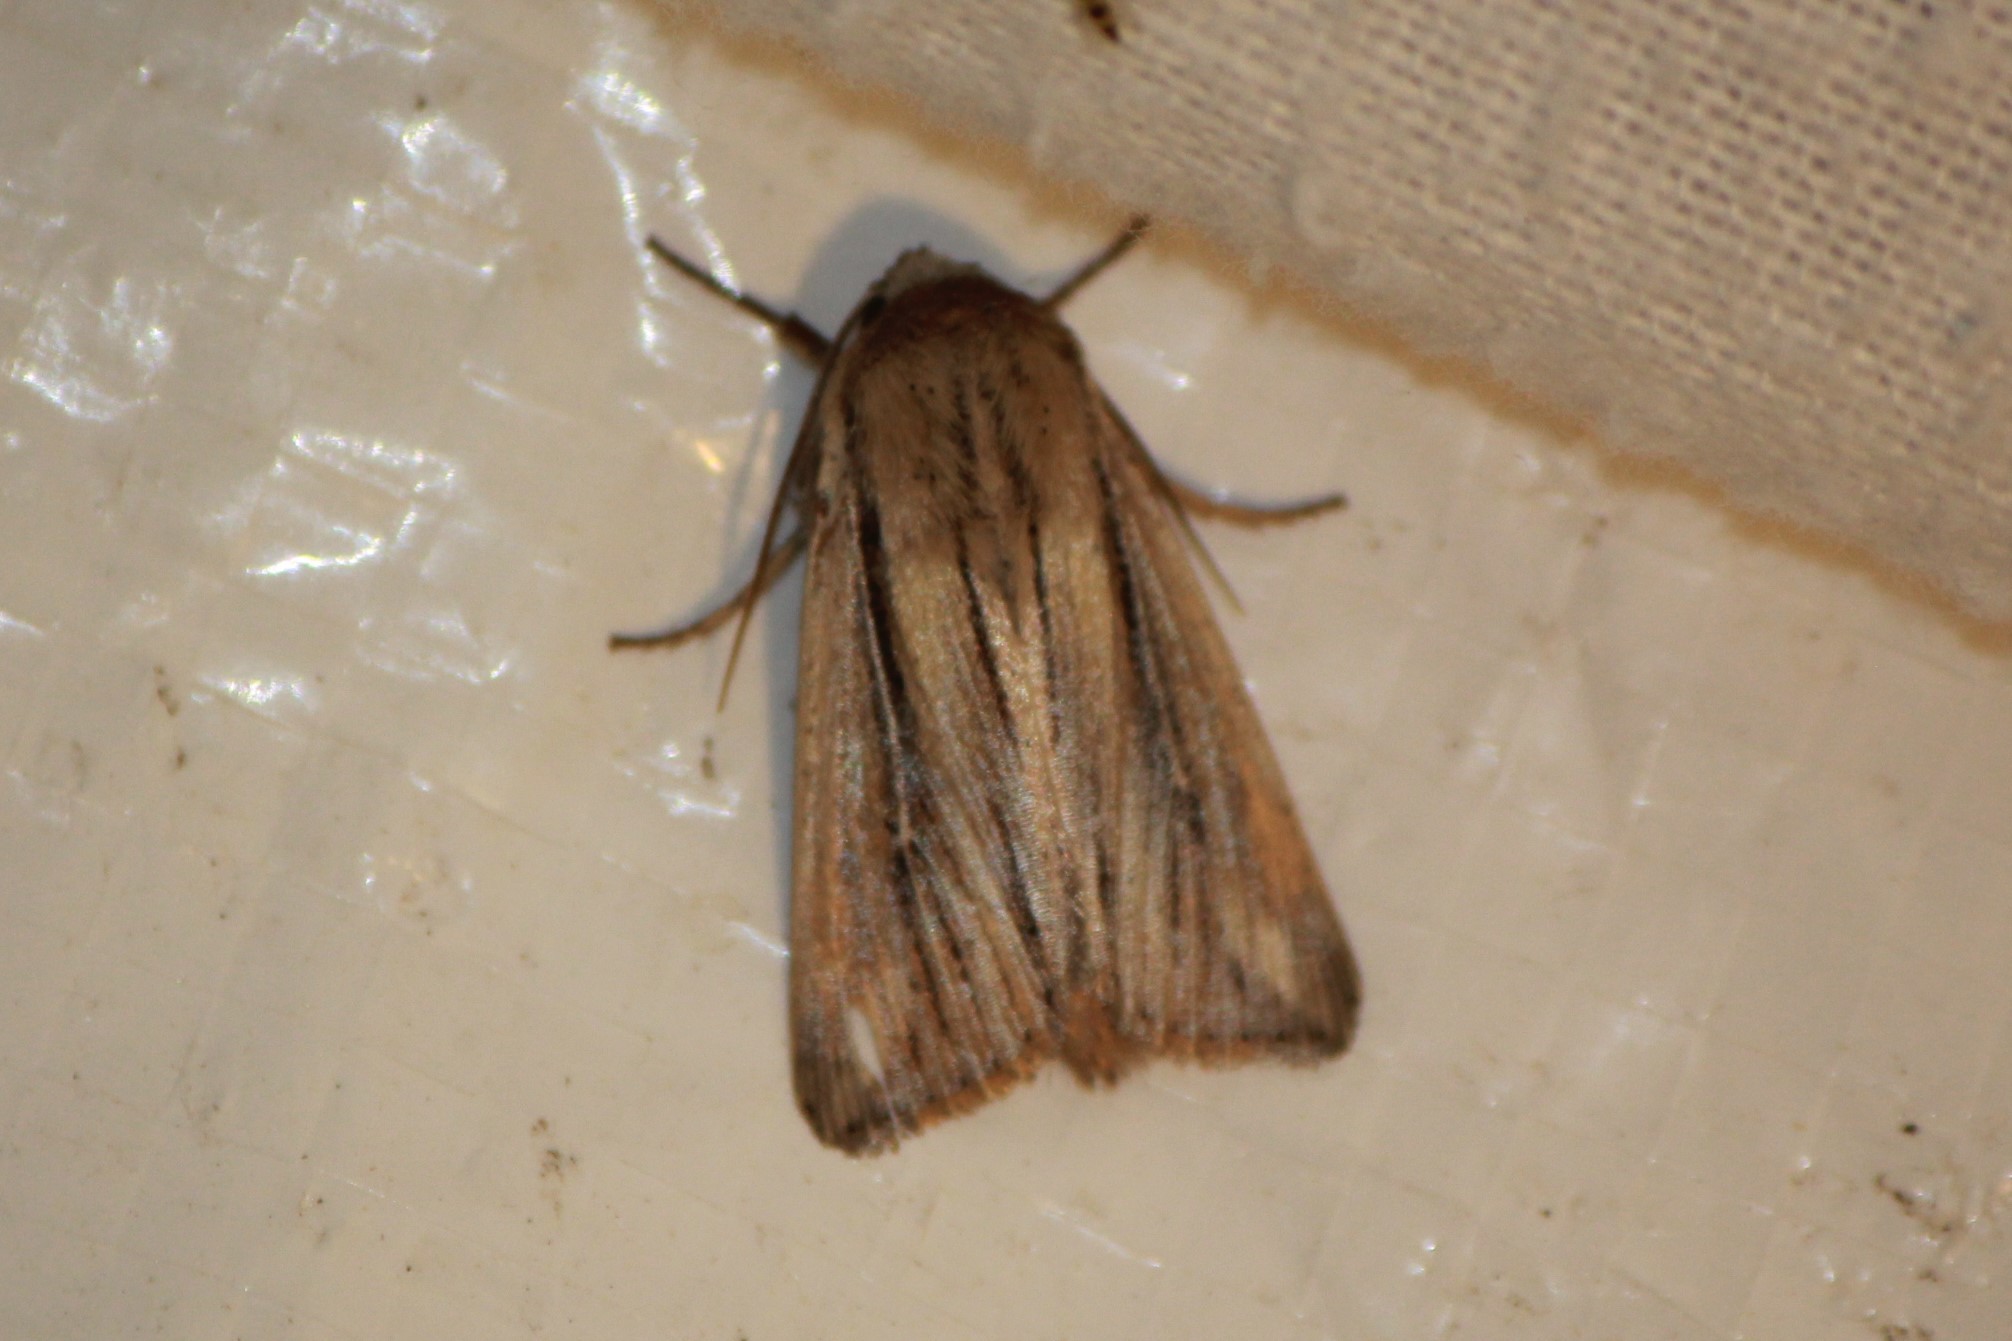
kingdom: Animalia
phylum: Arthropoda
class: Insecta
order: Lepidoptera
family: Noctuidae
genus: Leucania
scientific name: Leucania commoides
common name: Two-lined wainscot
